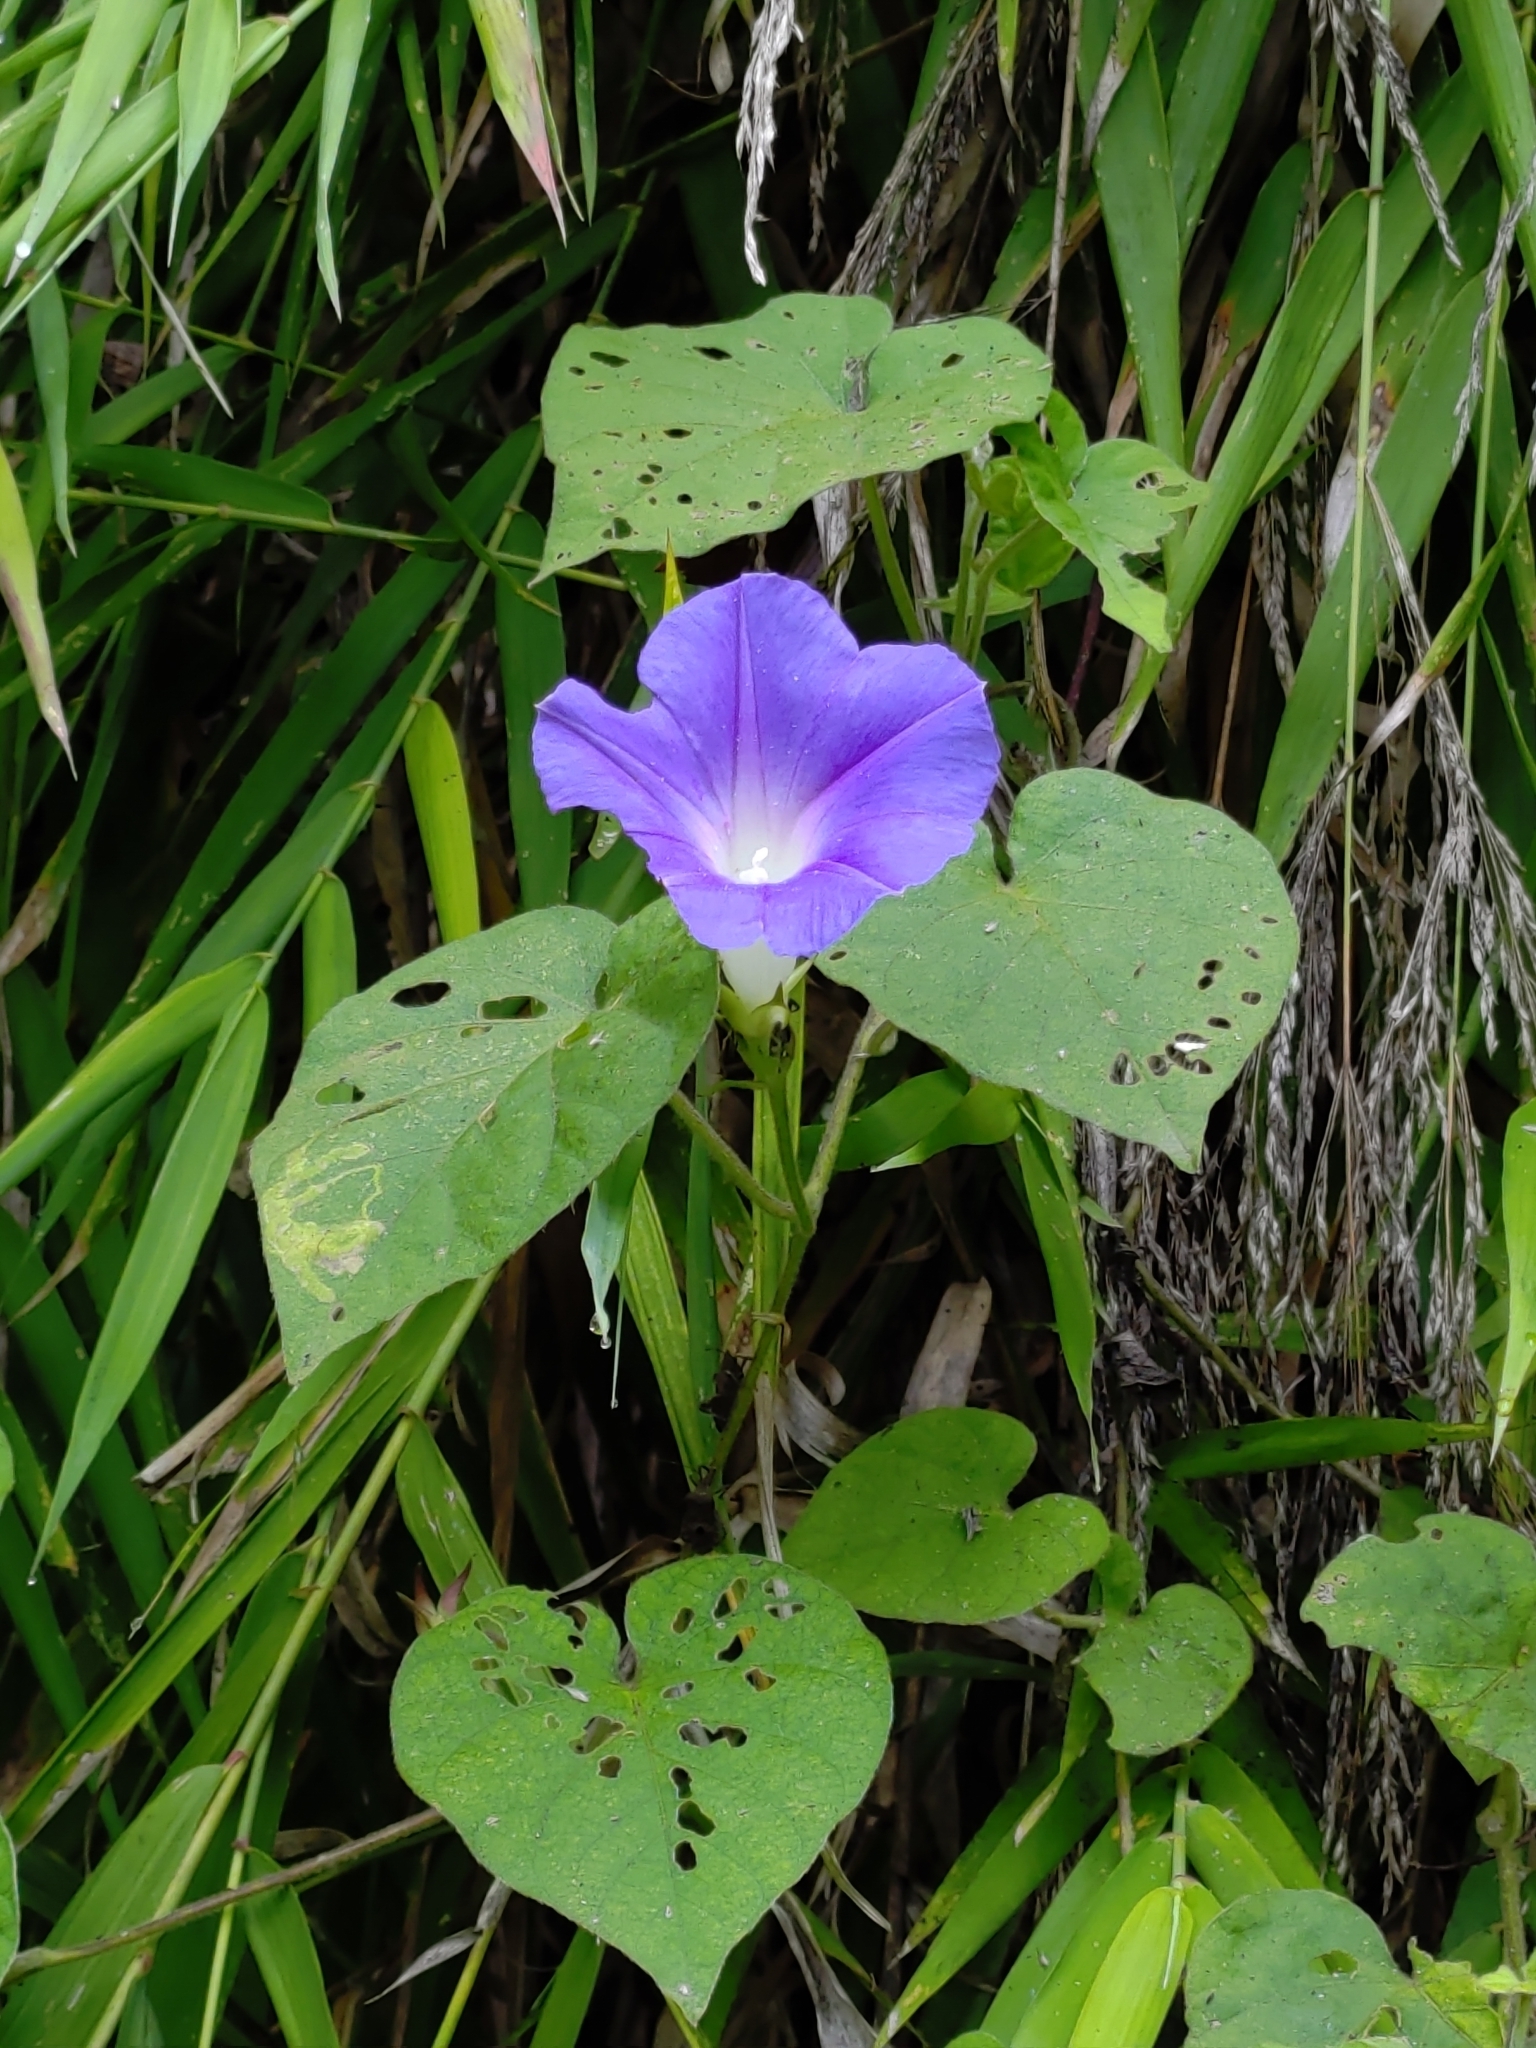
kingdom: Plantae
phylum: Tracheophyta
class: Magnoliopsida
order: Solanales
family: Convolvulaceae
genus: Ipomoea
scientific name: Ipomoea indica
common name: Blue dawnflower
